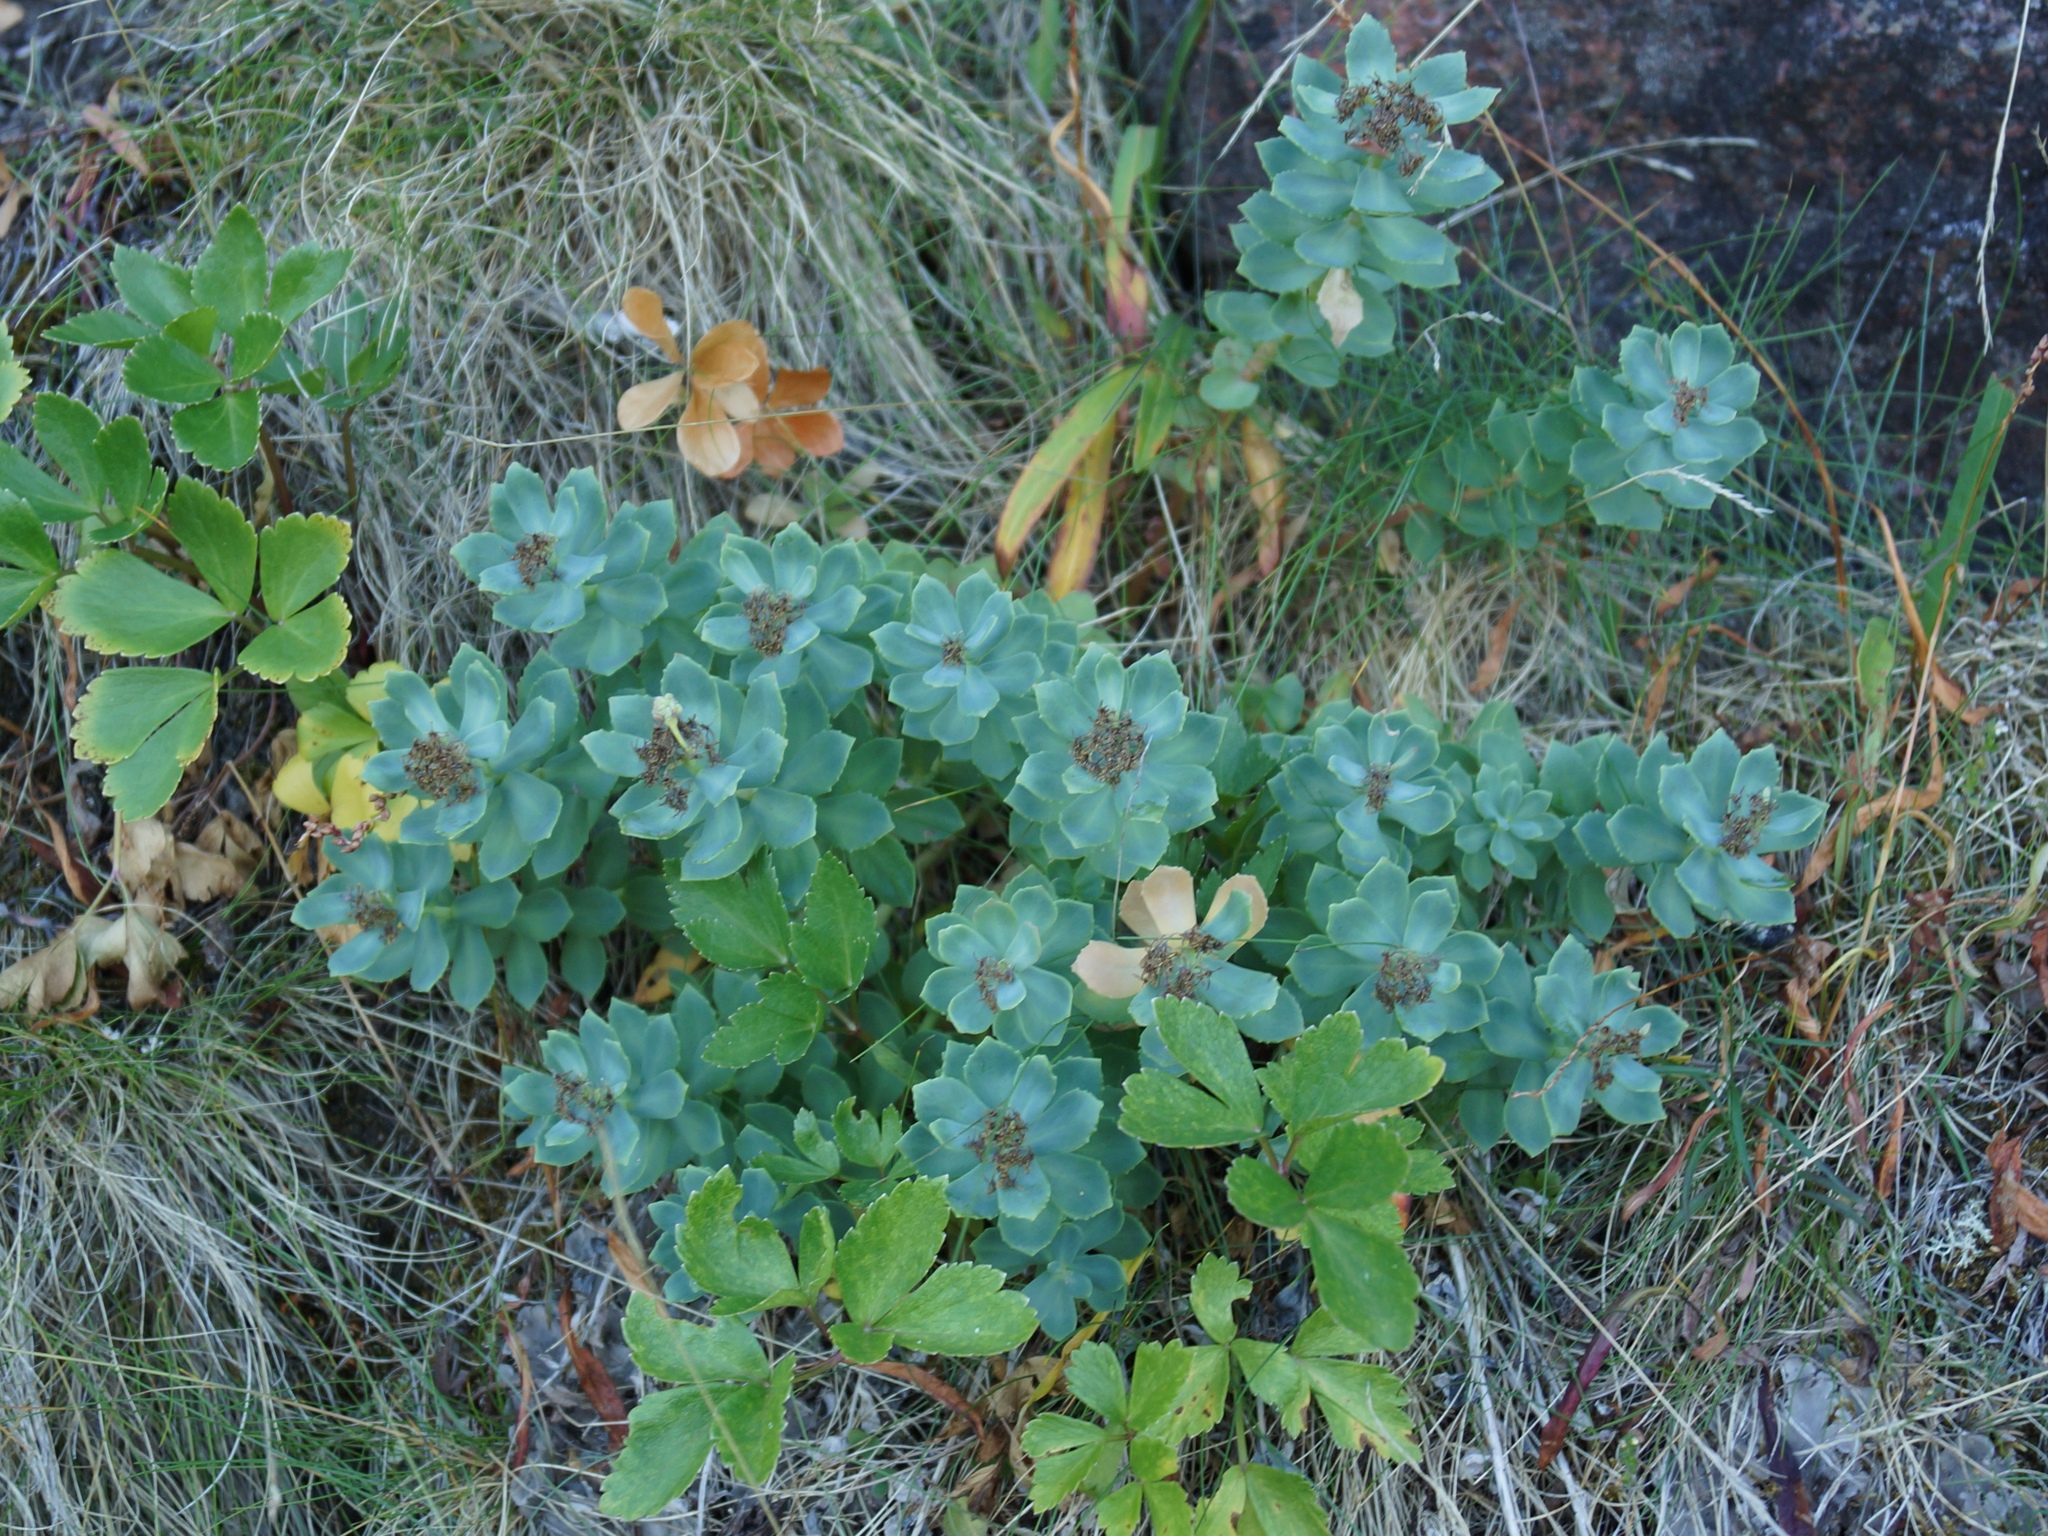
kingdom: Plantae
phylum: Tracheophyta
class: Magnoliopsida
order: Saxifragales
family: Crassulaceae
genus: Rhodiola
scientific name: Rhodiola rosea
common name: Roseroot
